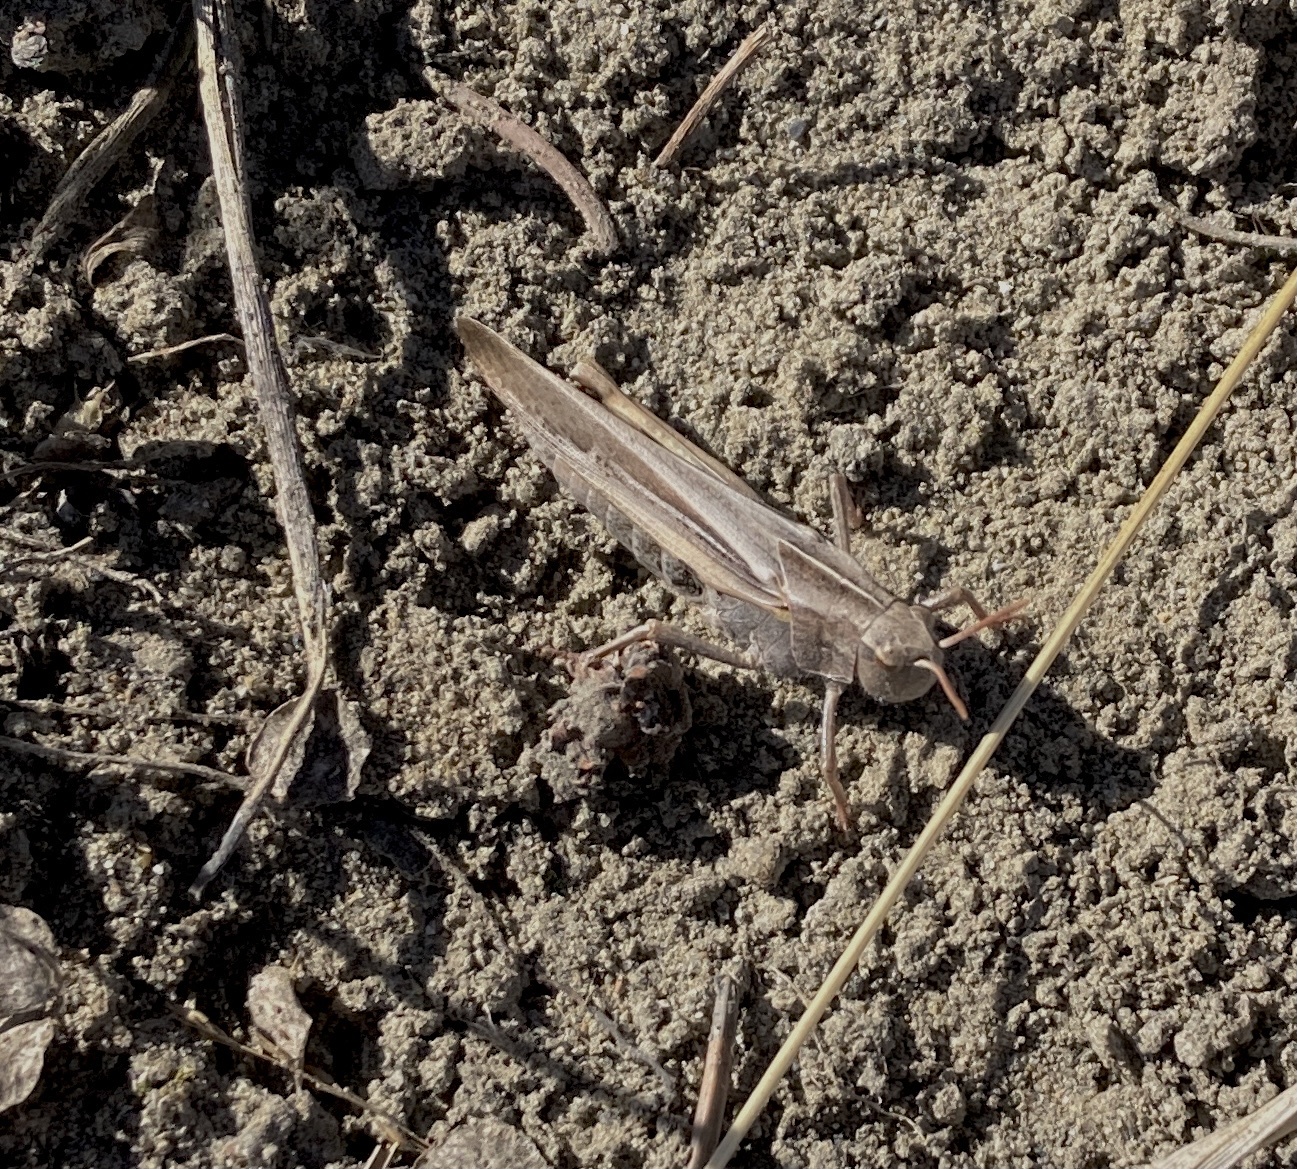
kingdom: Animalia
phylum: Arthropoda
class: Insecta
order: Orthoptera
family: Acrididae
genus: Chortophaga
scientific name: Chortophaga viridifasciata
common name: Green-striped grasshopper
